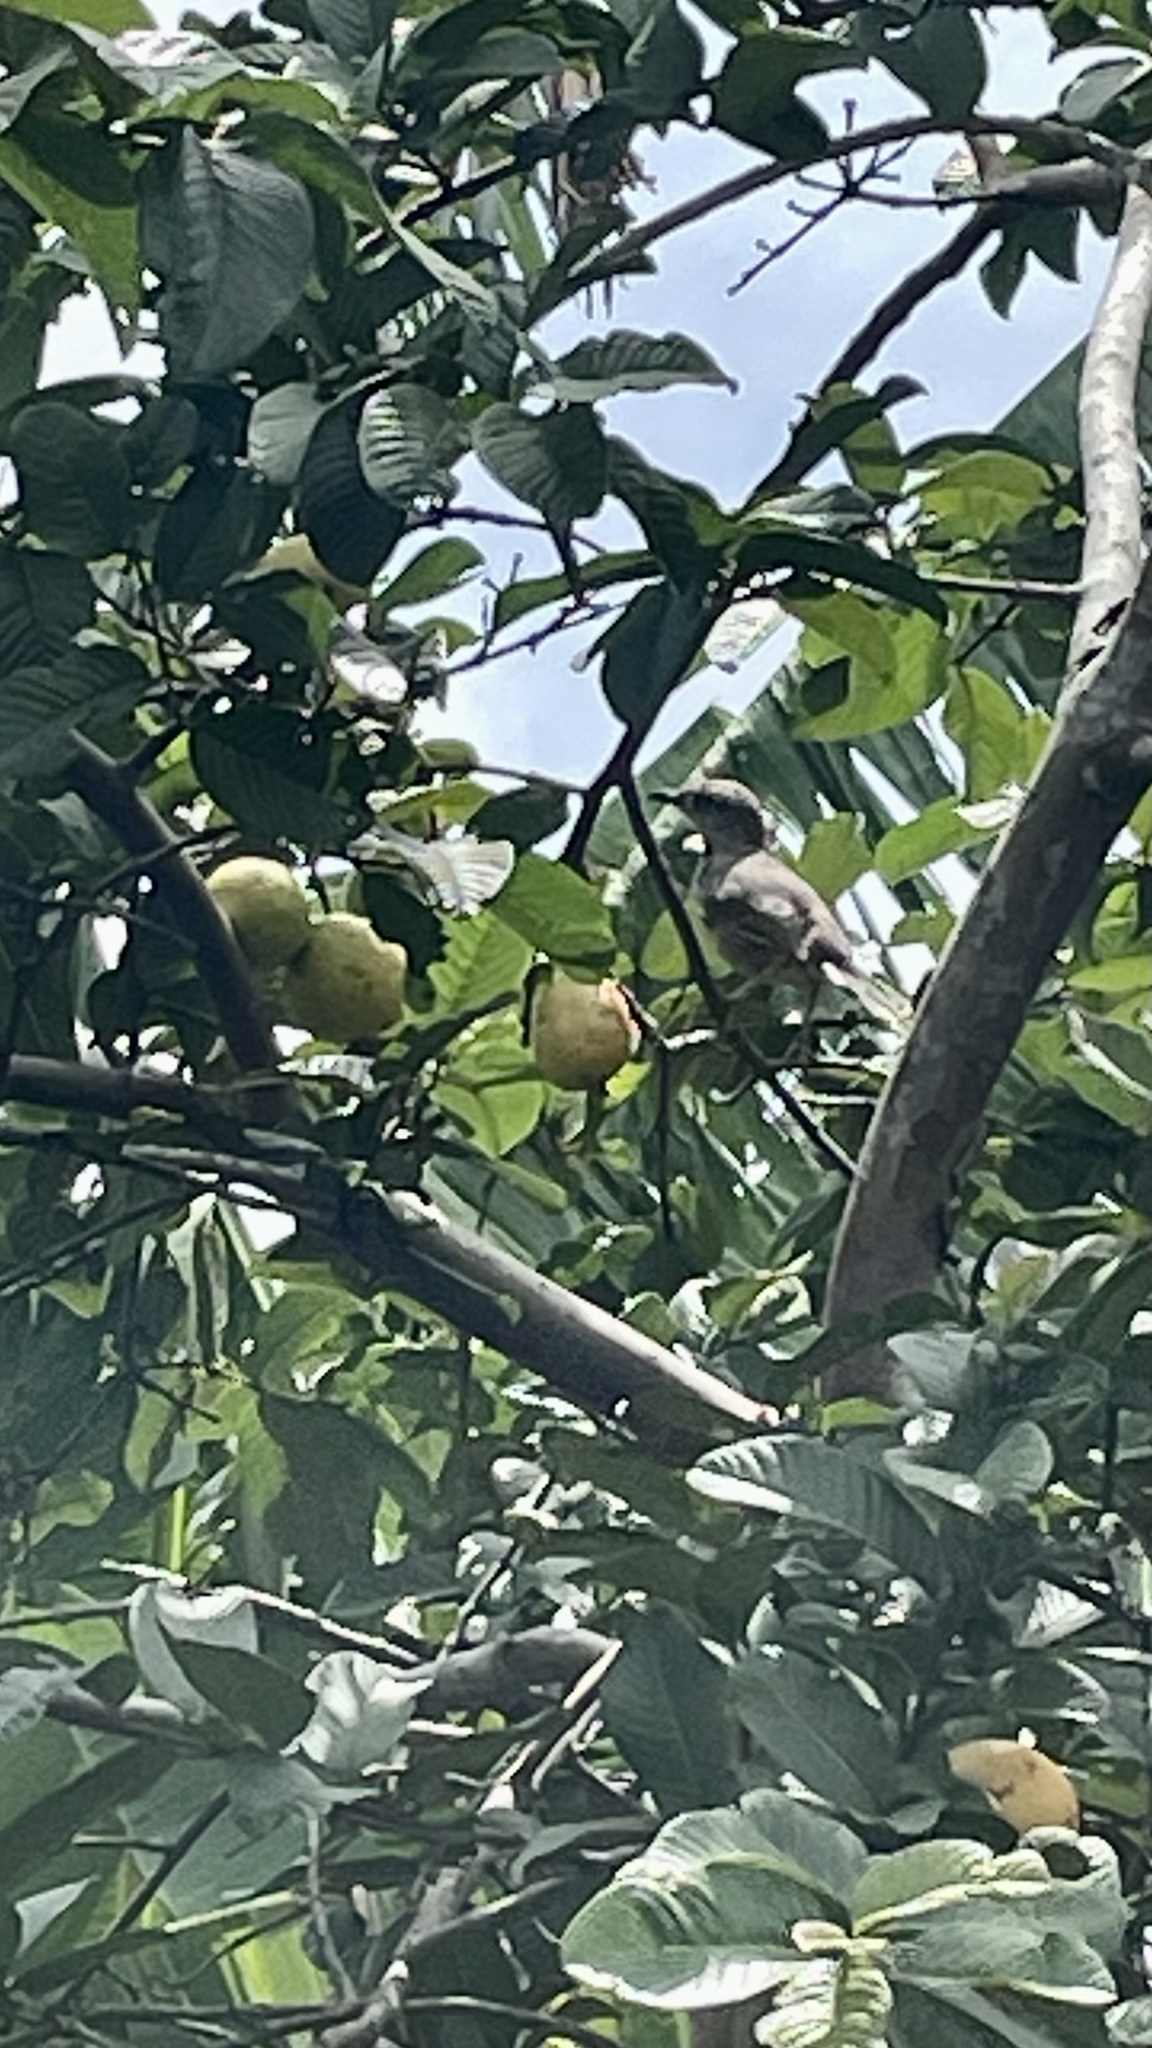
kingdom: Animalia
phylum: Chordata
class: Aves
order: Passeriformes
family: Mimidae
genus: Mimus
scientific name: Mimus saturninus
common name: Chalk-browed mockingbird
